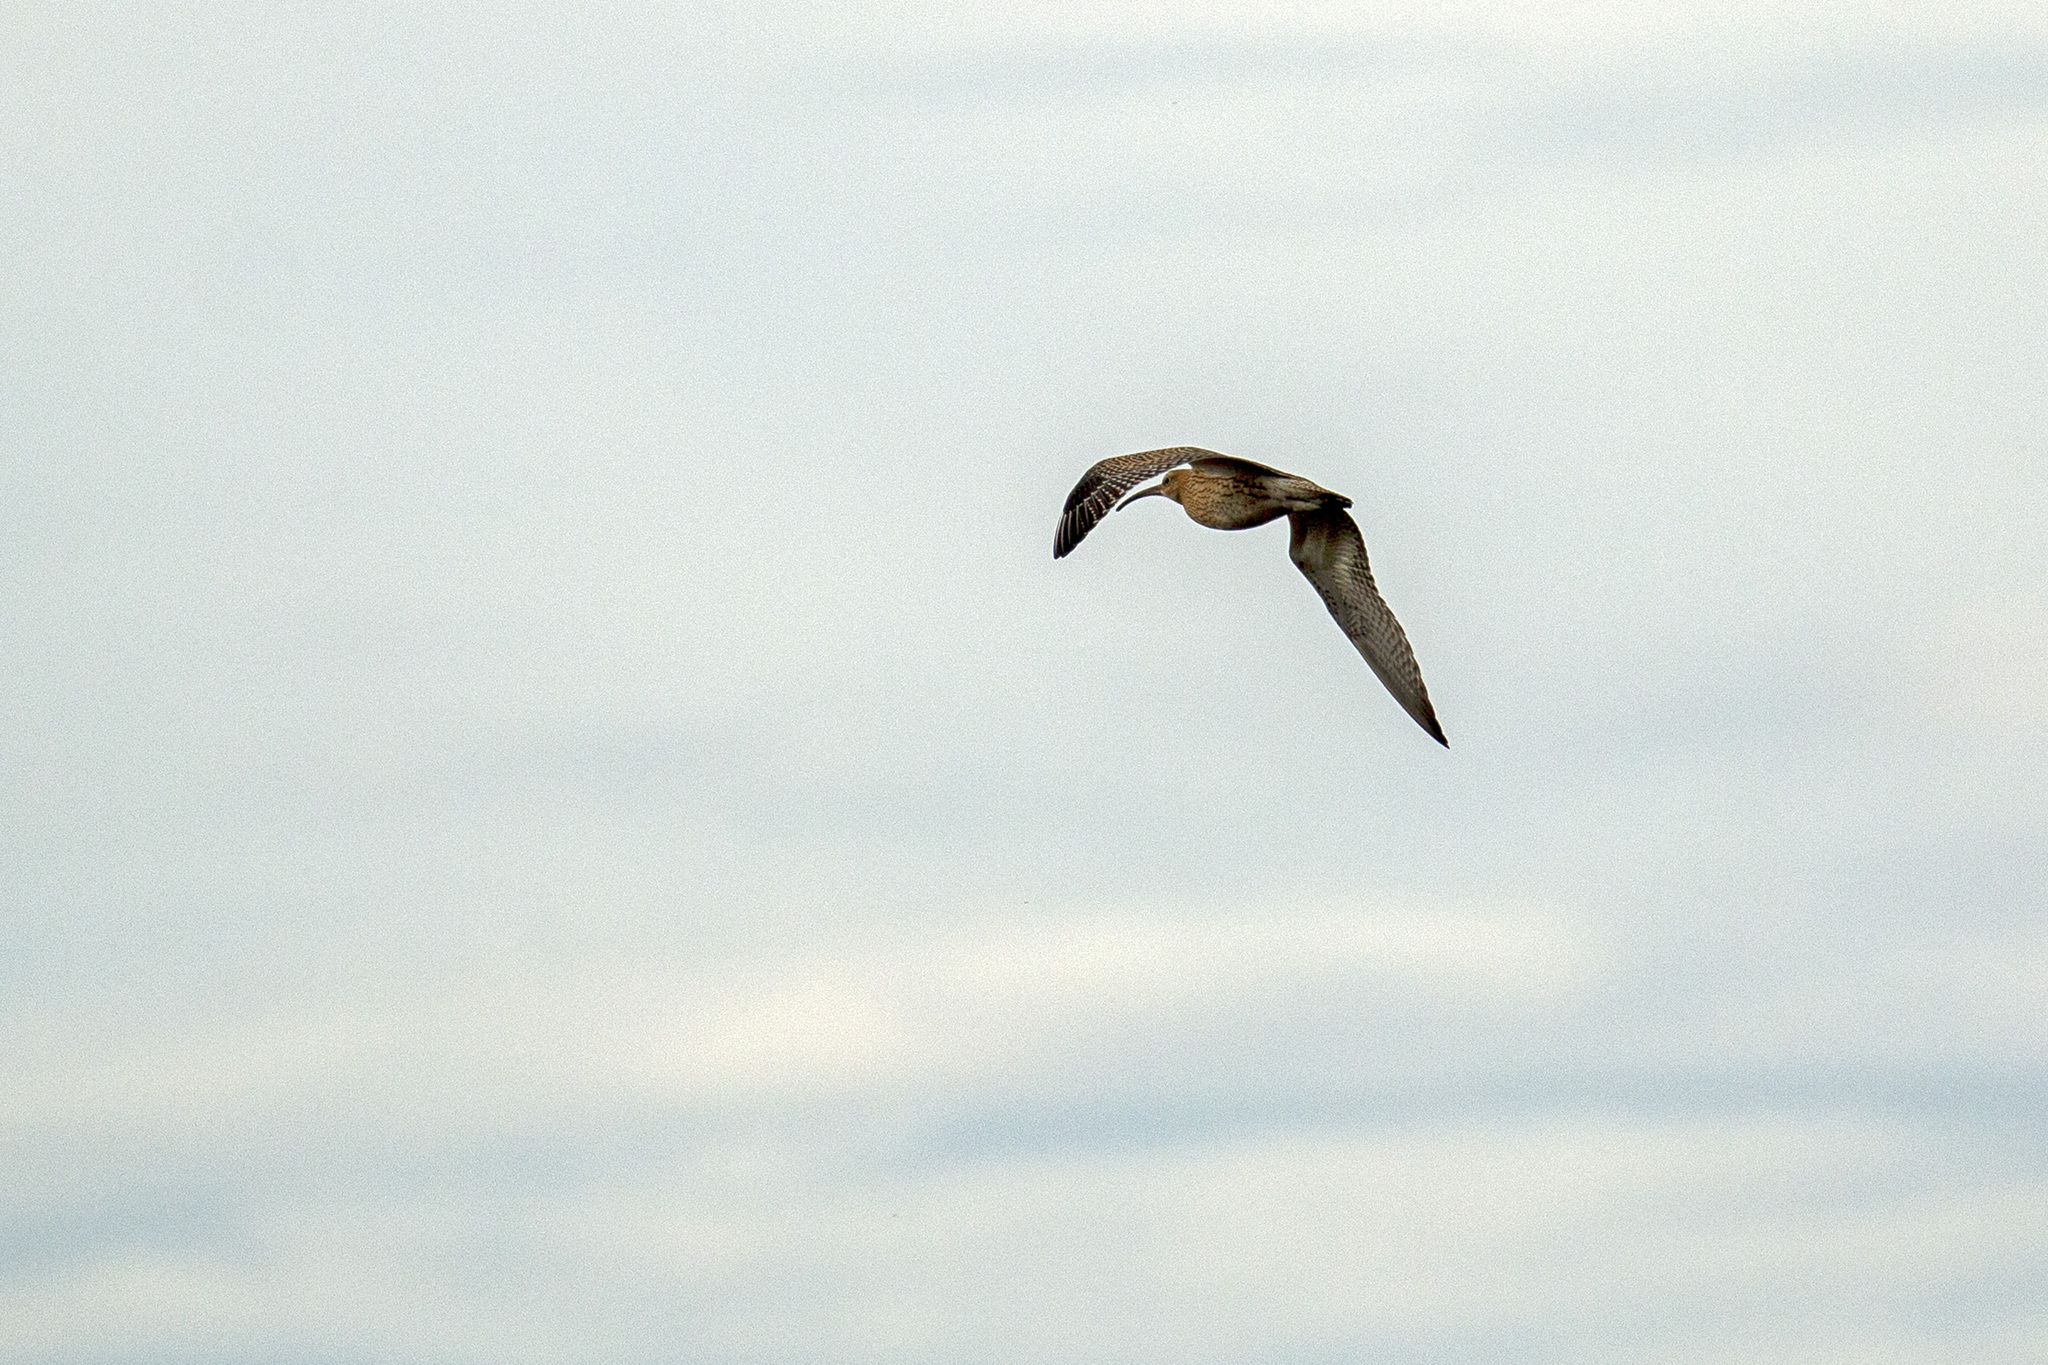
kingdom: Animalia
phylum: Chordata
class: Aves
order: Charadriiformes
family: Scolopacidae
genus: Numenius
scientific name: Numenius arquata
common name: Eurasian curlew
